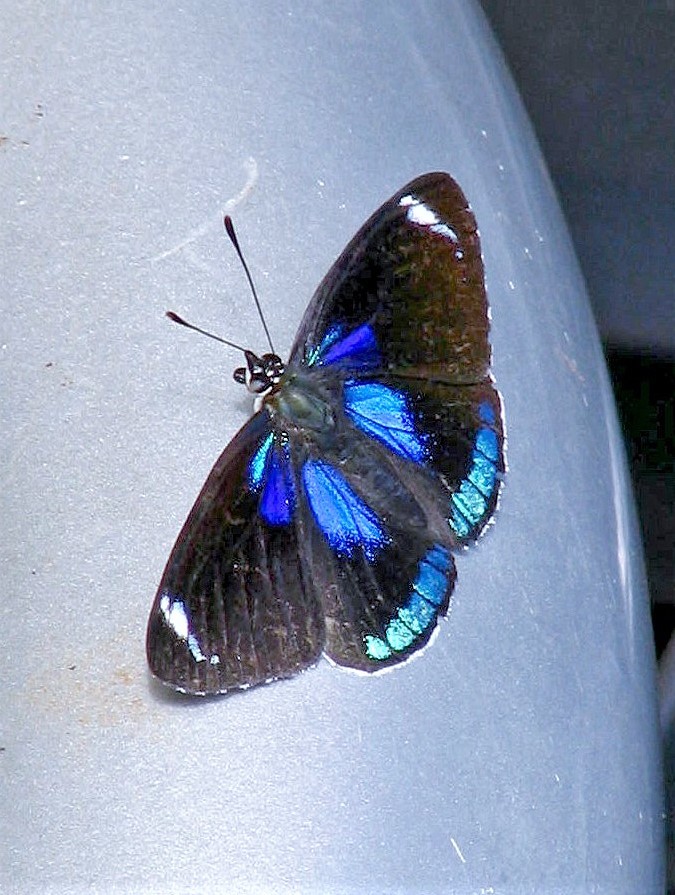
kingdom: Animalia
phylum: Arthropoda
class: Insecta
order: Lepidoptera
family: Nymphalidae
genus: Diaethria
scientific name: Diaethria candrena
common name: Number eighty
